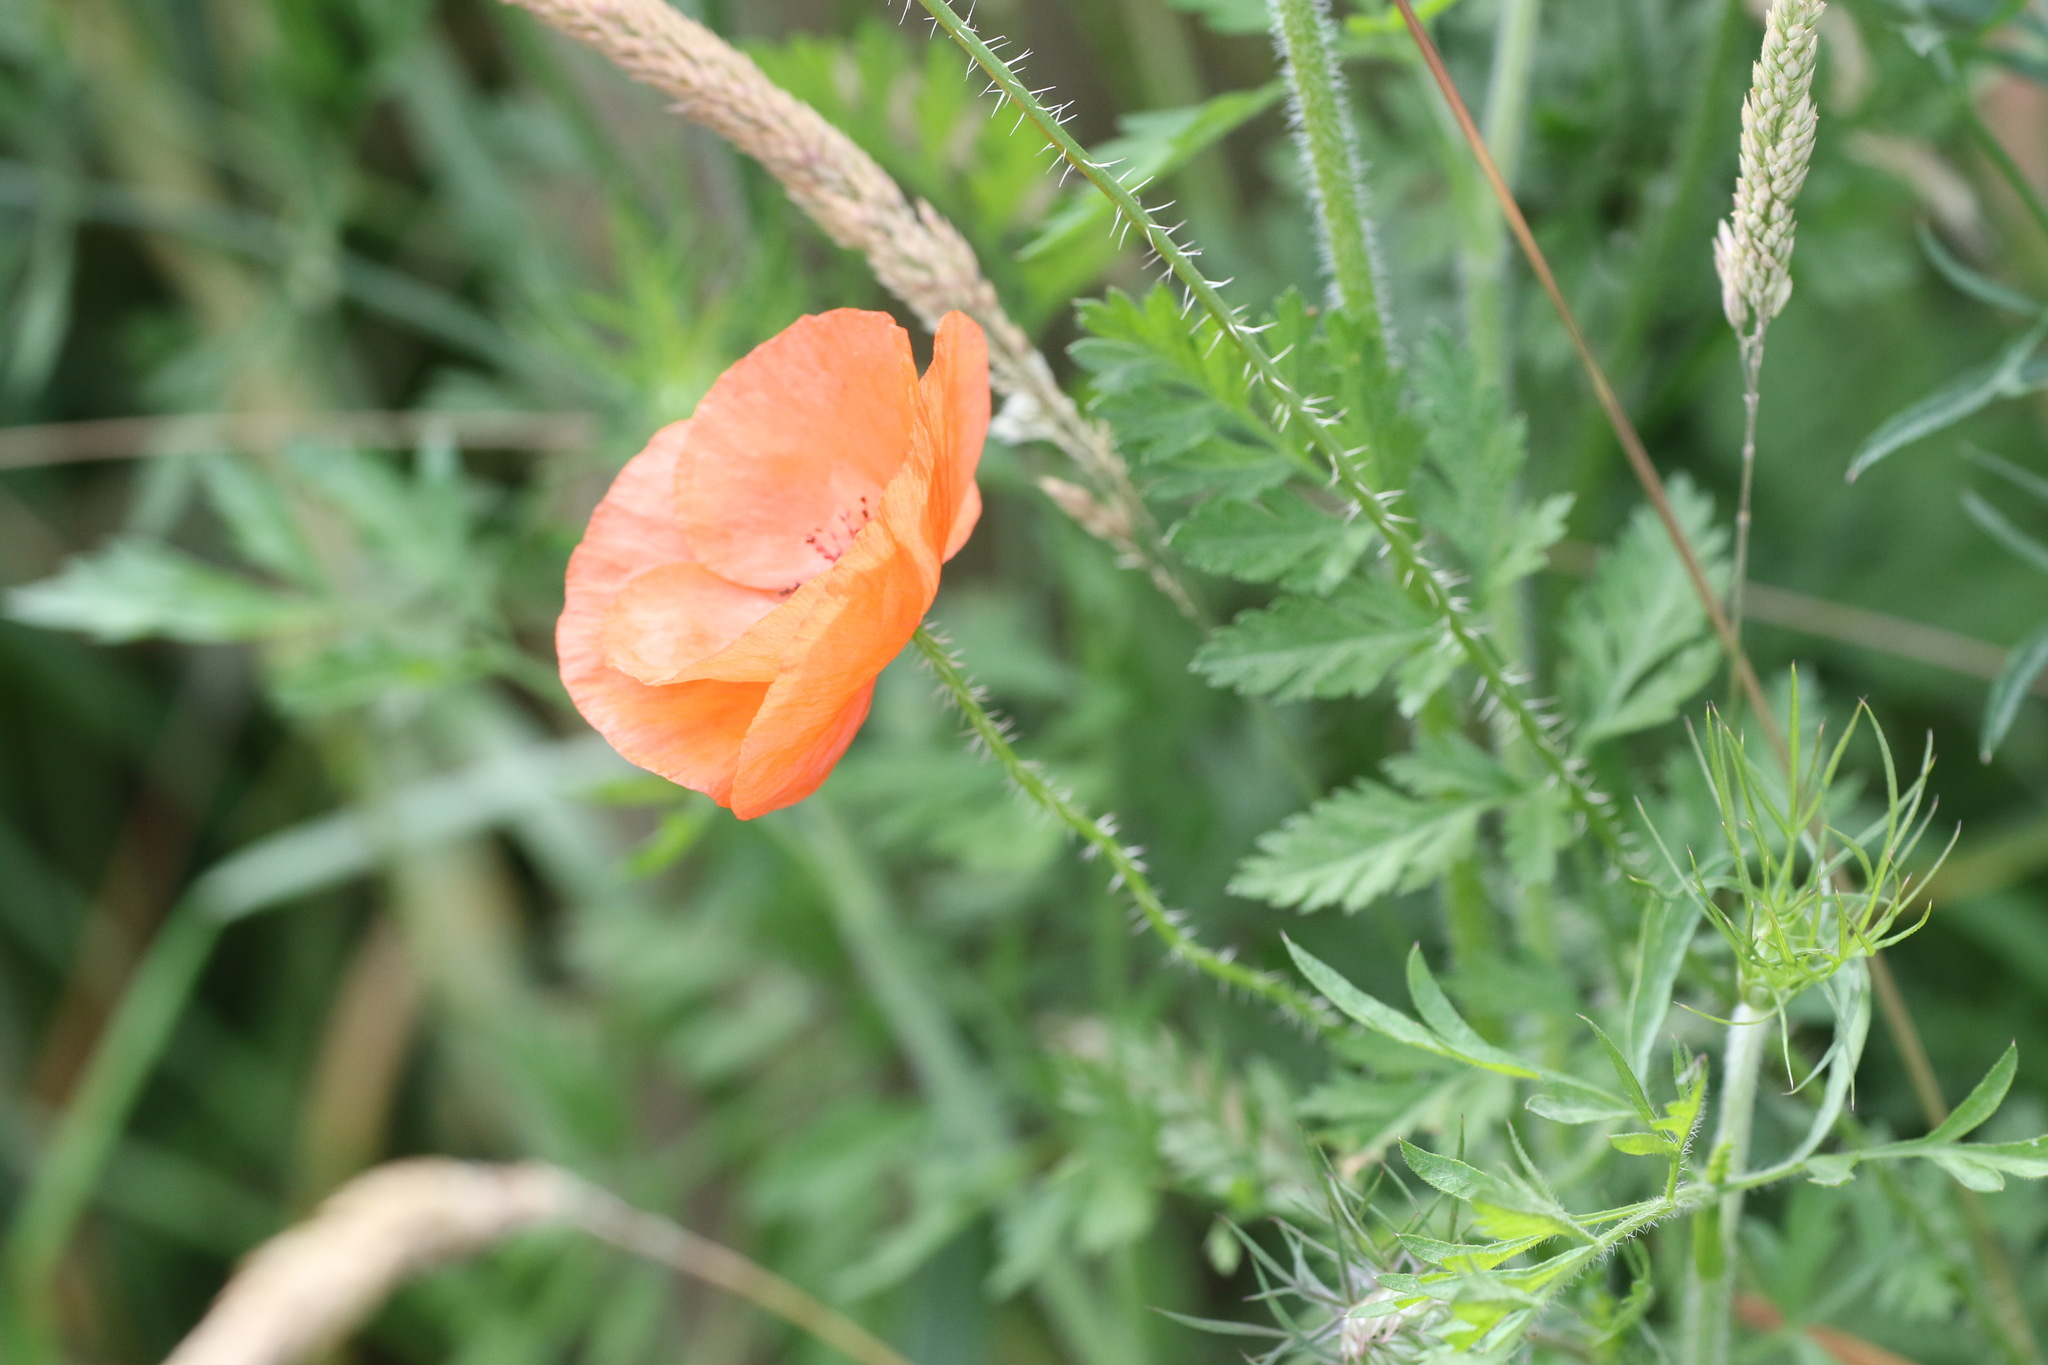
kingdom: Plantae
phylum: Tracheophyta
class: Magnoliopsida
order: Ranunculales
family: Papaveraceae
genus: Papaver
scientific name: Papaver rhoeas
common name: Corn poppy
